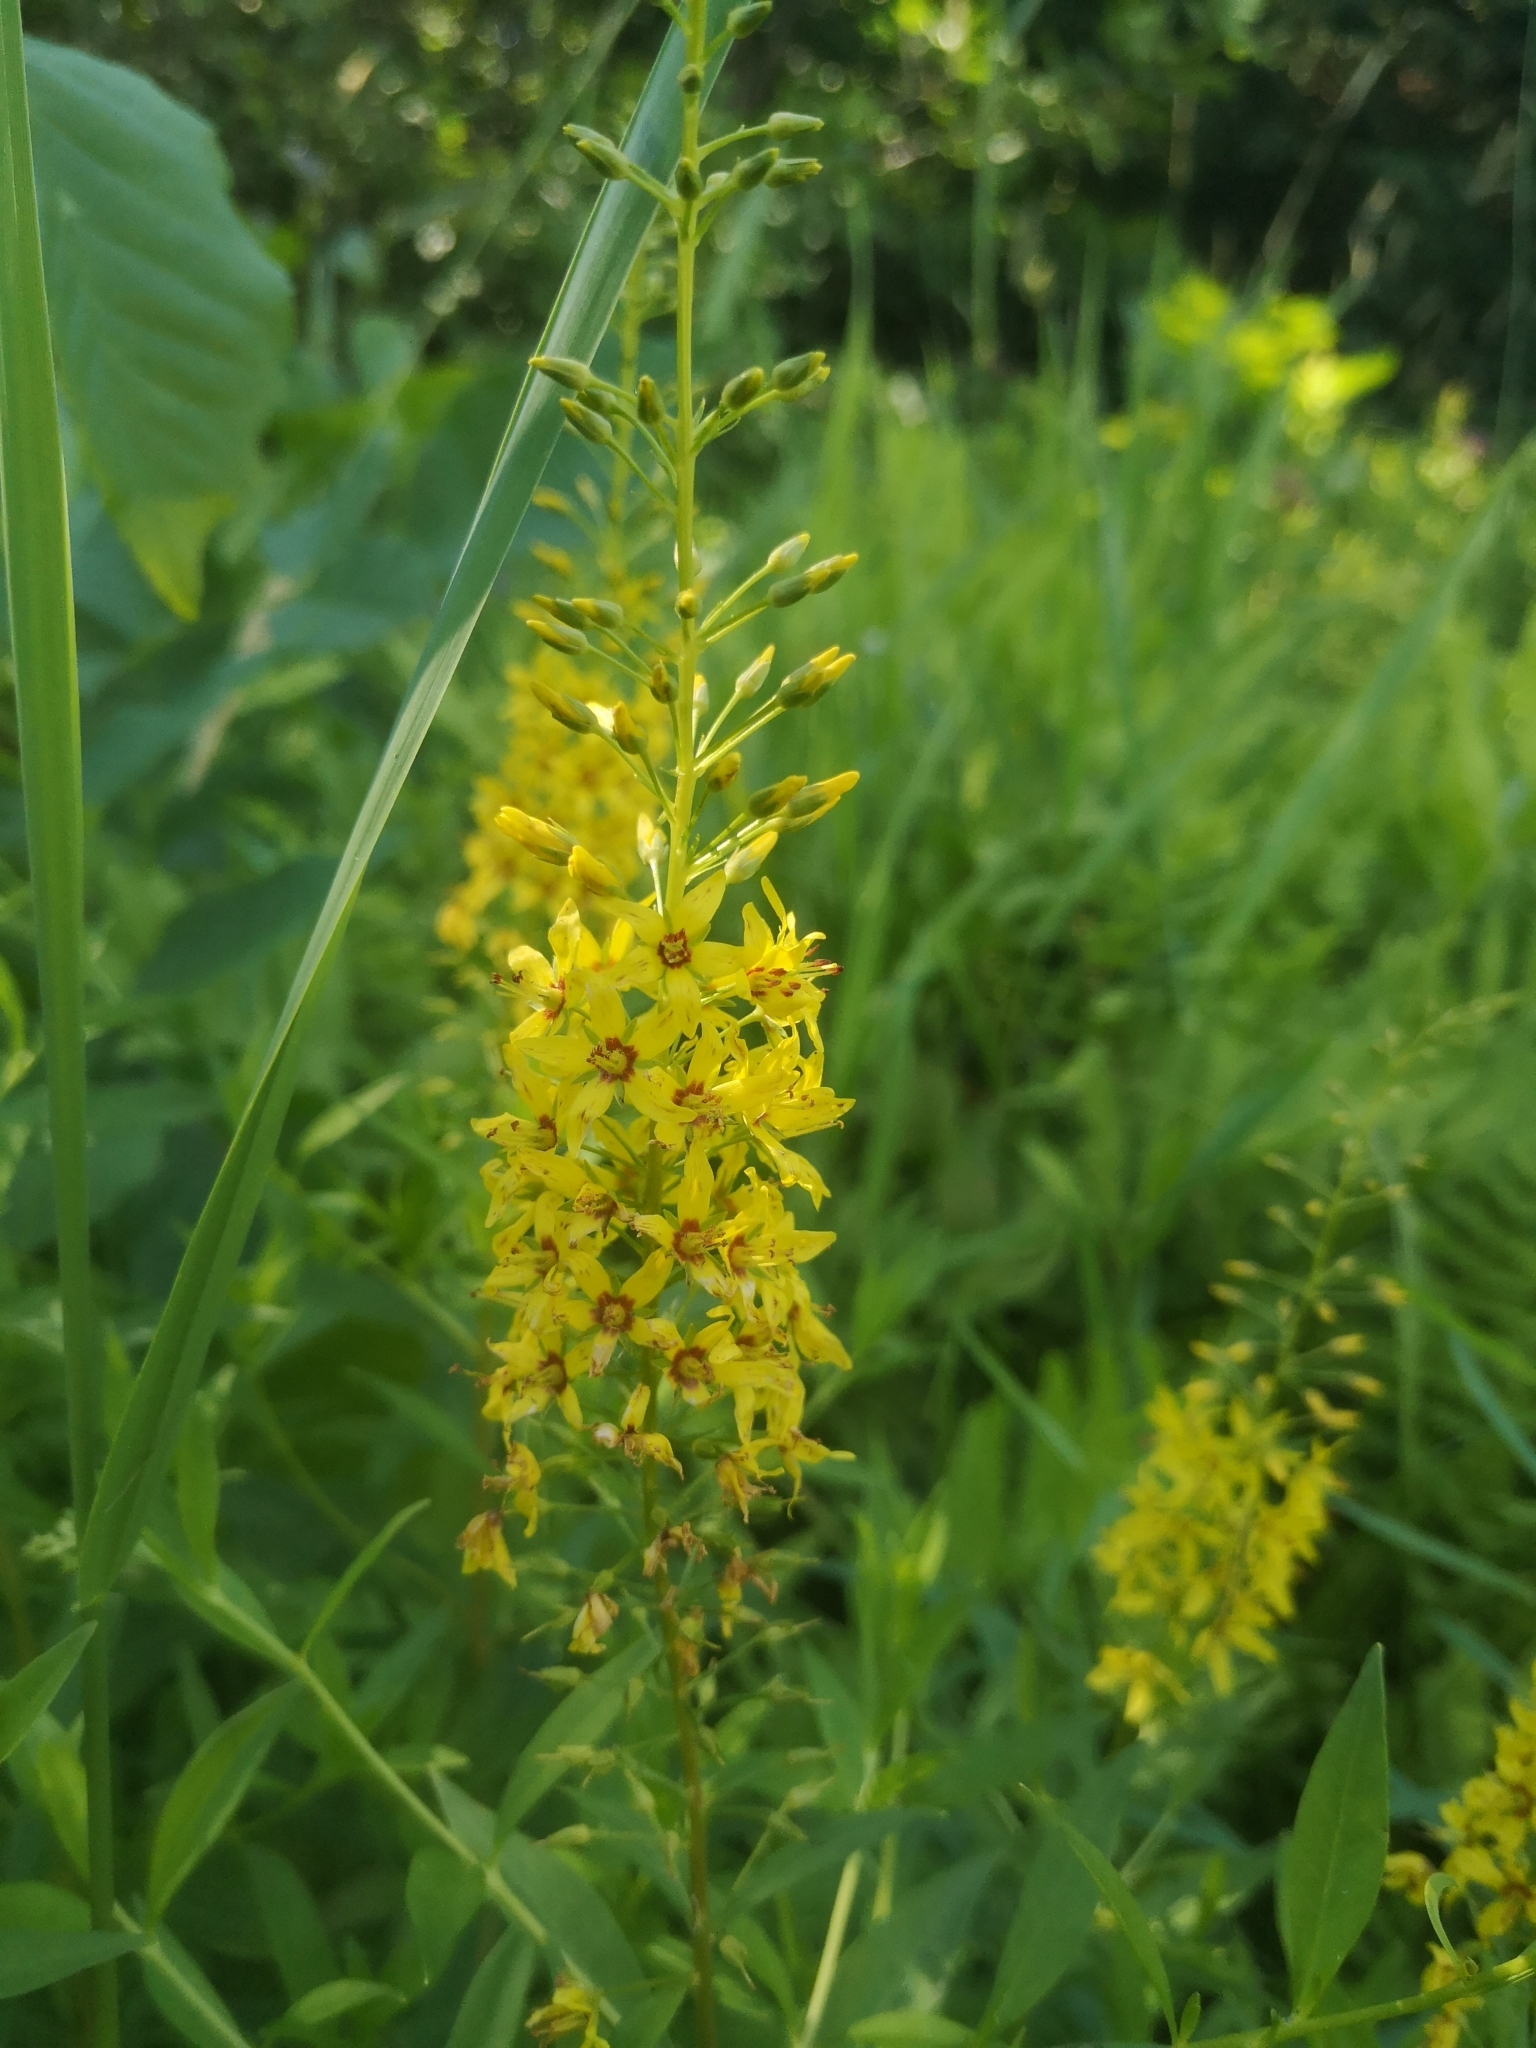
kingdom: Plantae
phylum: Tracheophyta
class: Magnoliopsida
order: Ericales
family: Primulaceae
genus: Lysimachia
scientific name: Lysimachia terrestris
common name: Lake loosestrife
